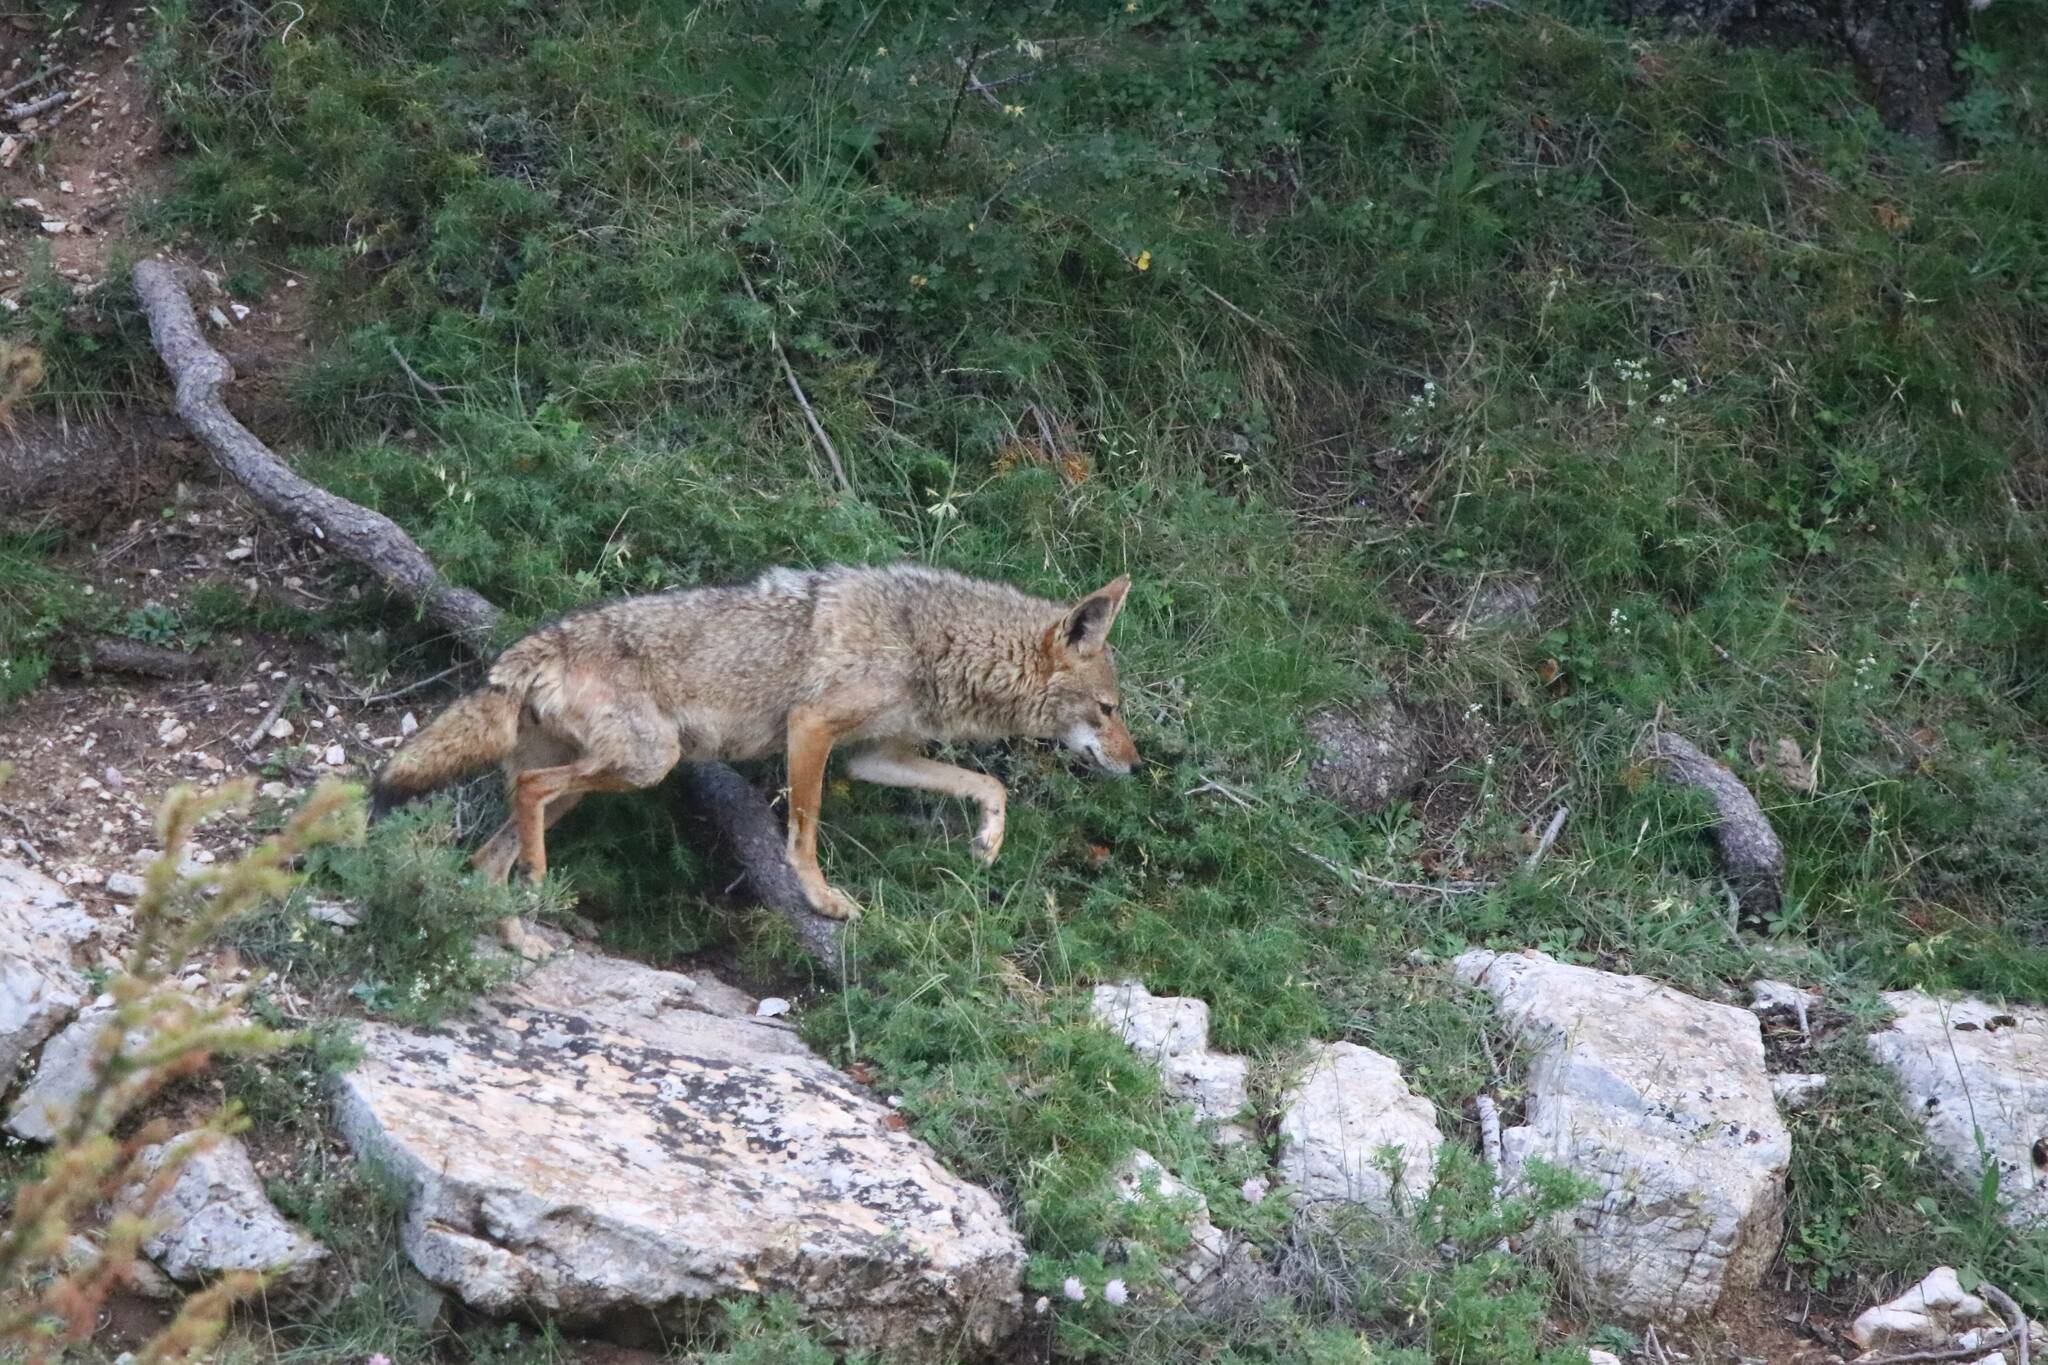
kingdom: Animalia
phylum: Chordata
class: Mammalia
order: Carnivora
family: Canidae
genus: Canis
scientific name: Canis lupaster
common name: African golden wolf
